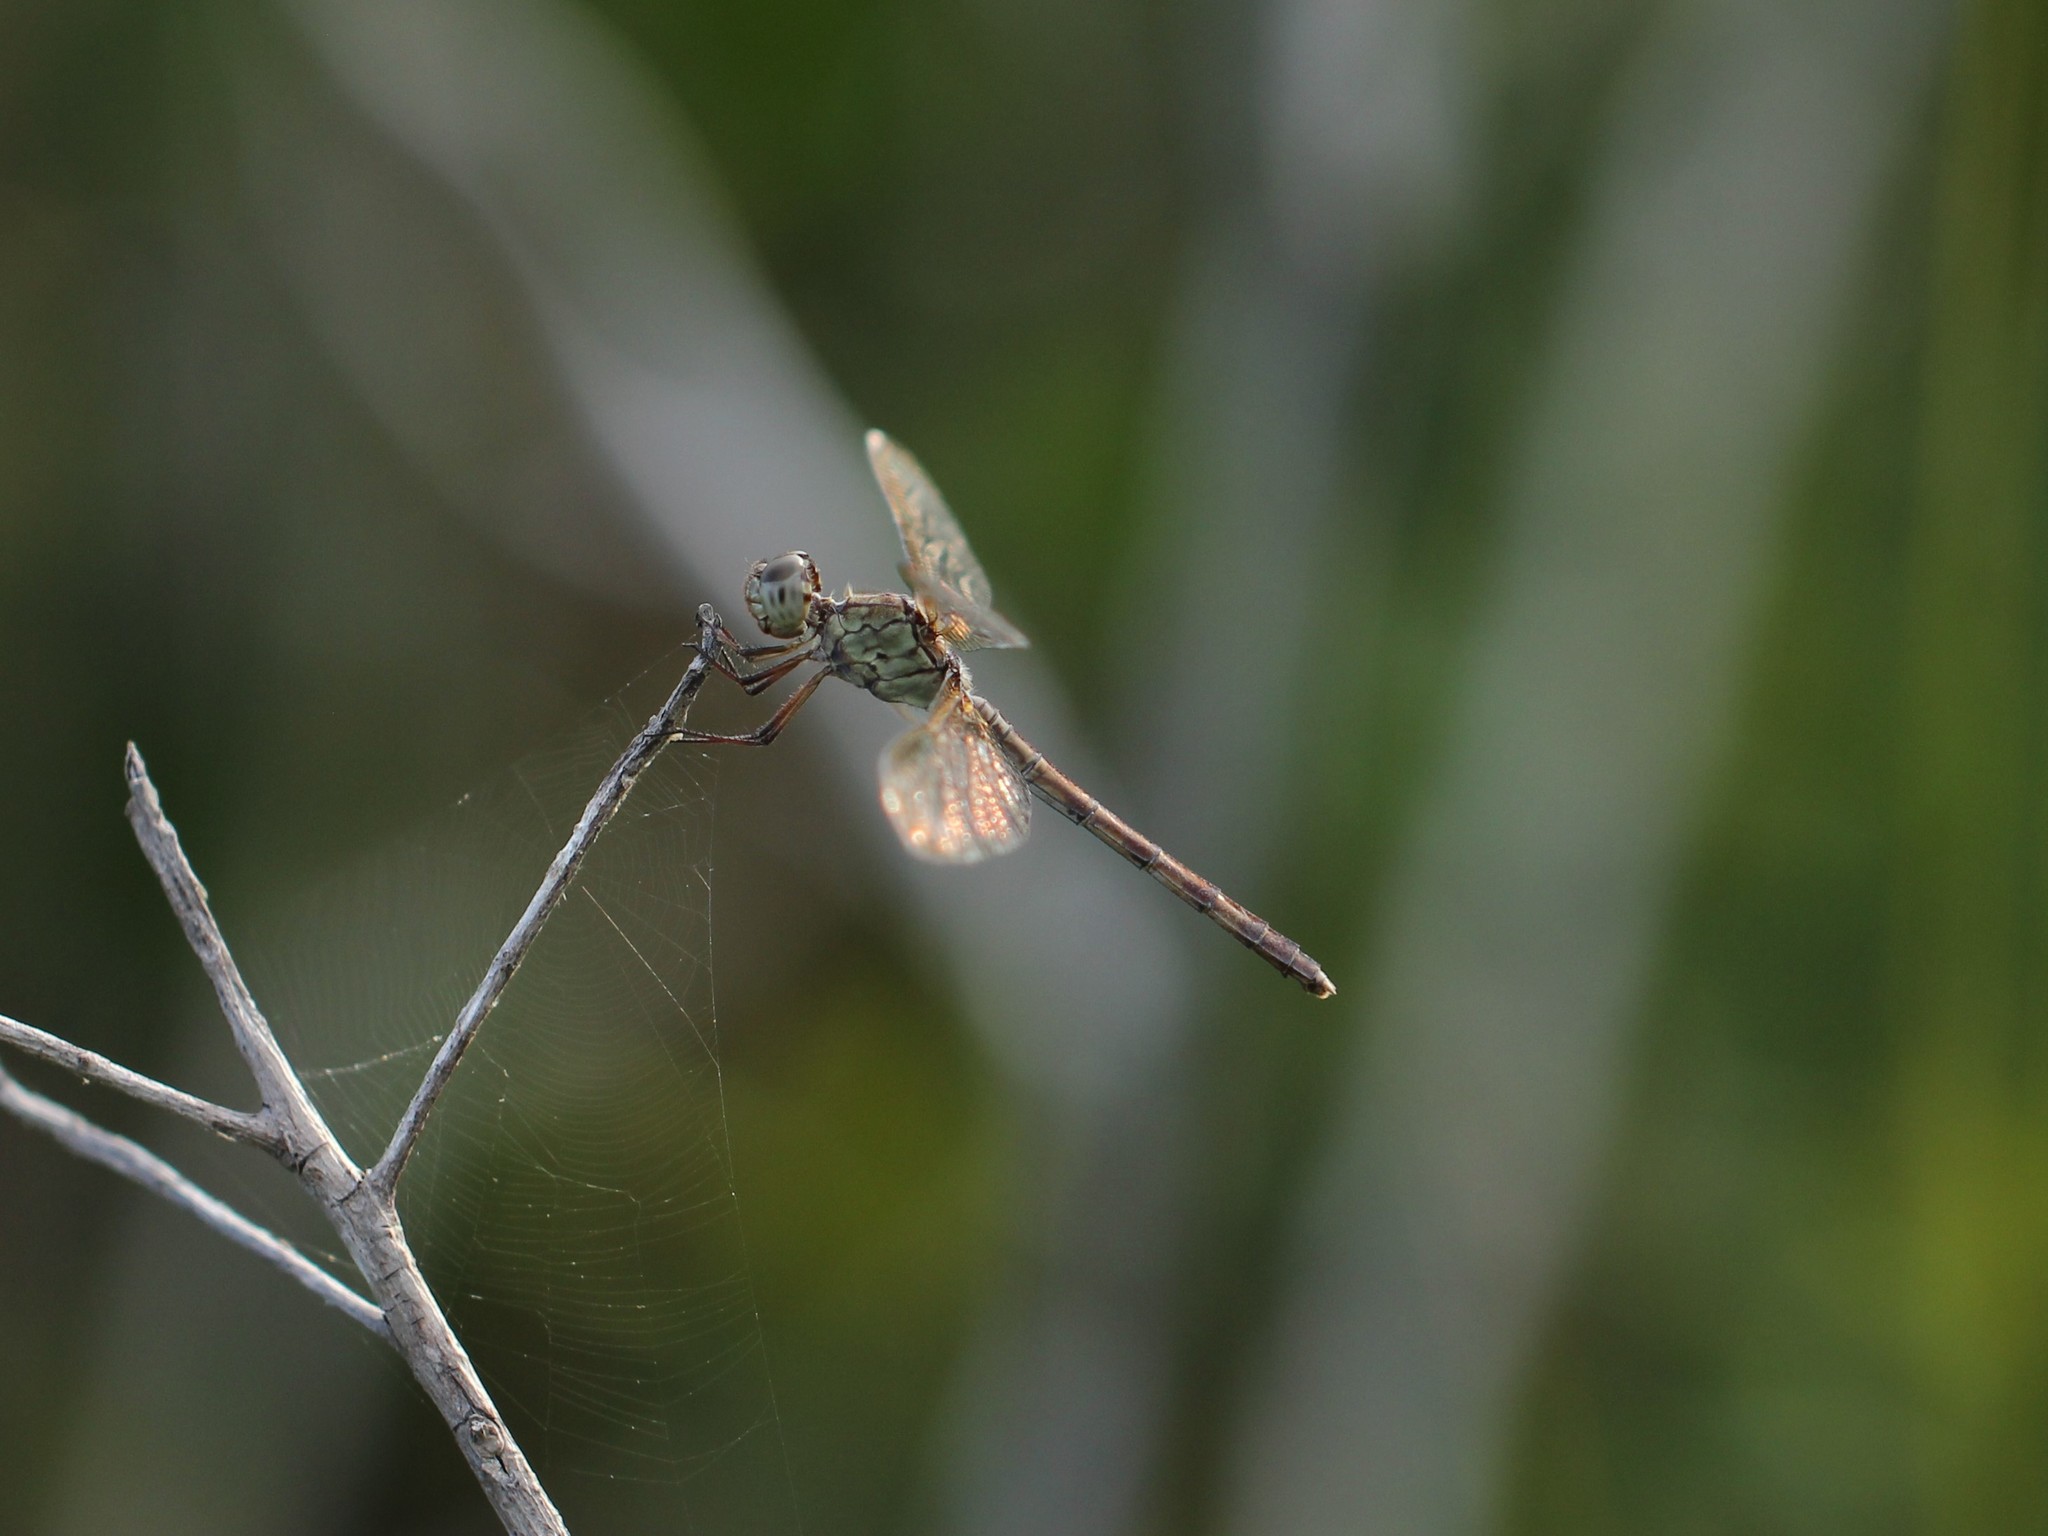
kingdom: Animalia
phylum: Arthropoda
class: Insecta
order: Odonata
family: Libellulidae
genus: Erythrodiplax
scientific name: Erythrodiplax umbrata
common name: Band-winged dragonlet
